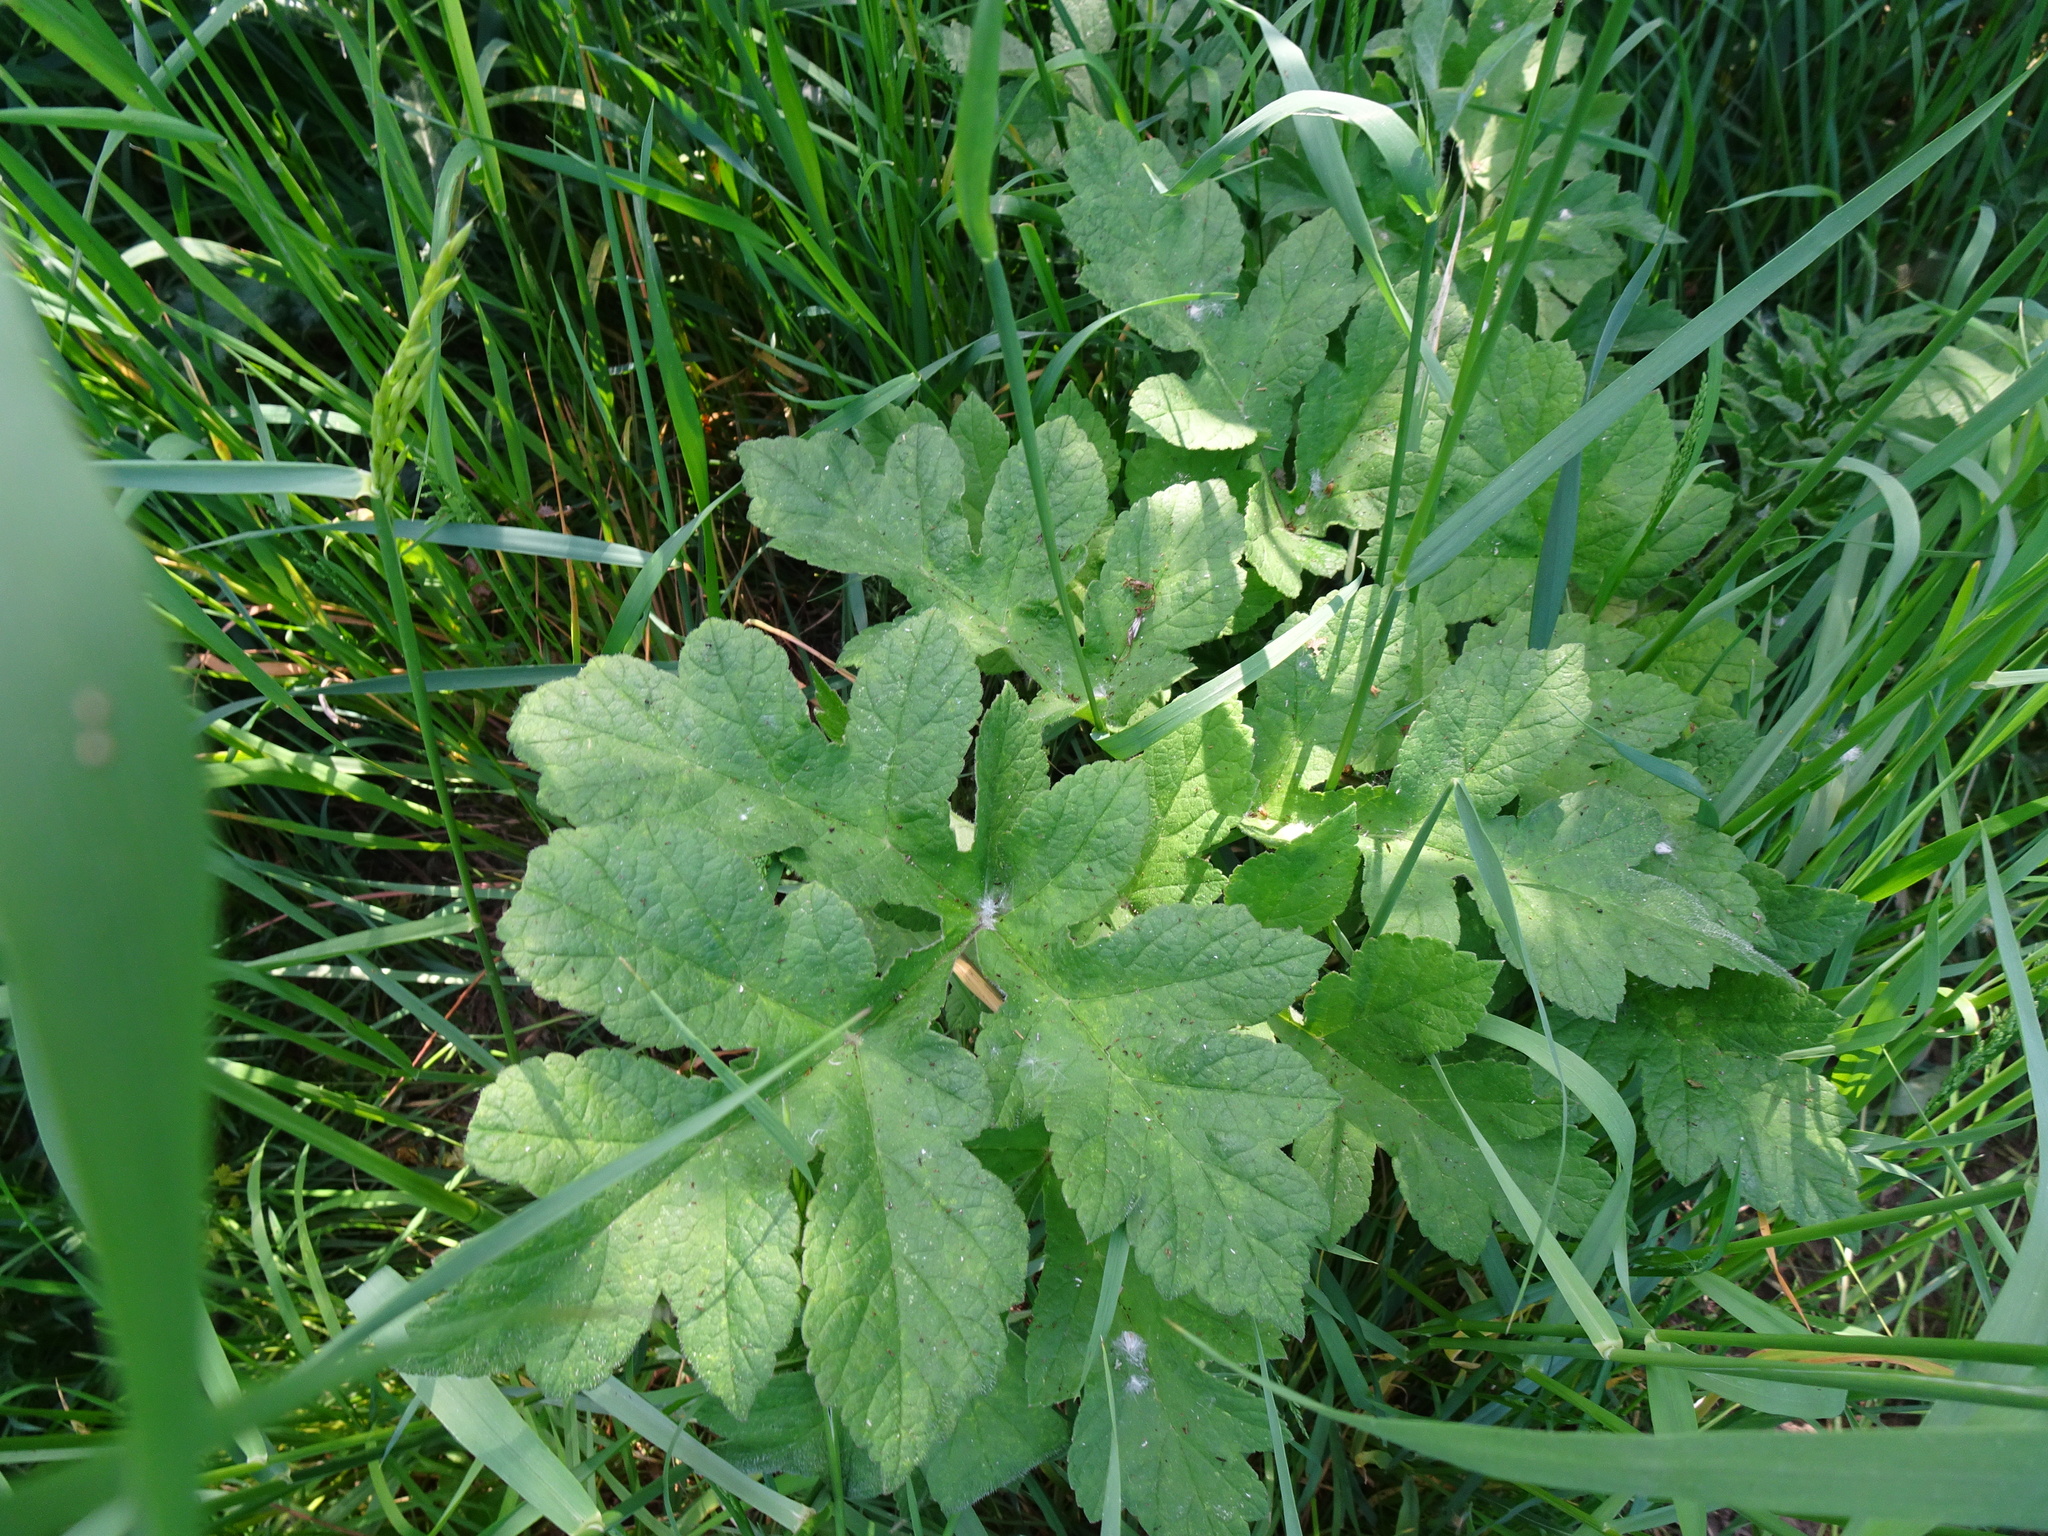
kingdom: Plantae
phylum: Tracheophyta
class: Magnoliopsida
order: Apiales
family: Apiaceae
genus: Heracleum
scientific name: Heracleum sphondylium
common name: Hogweed
